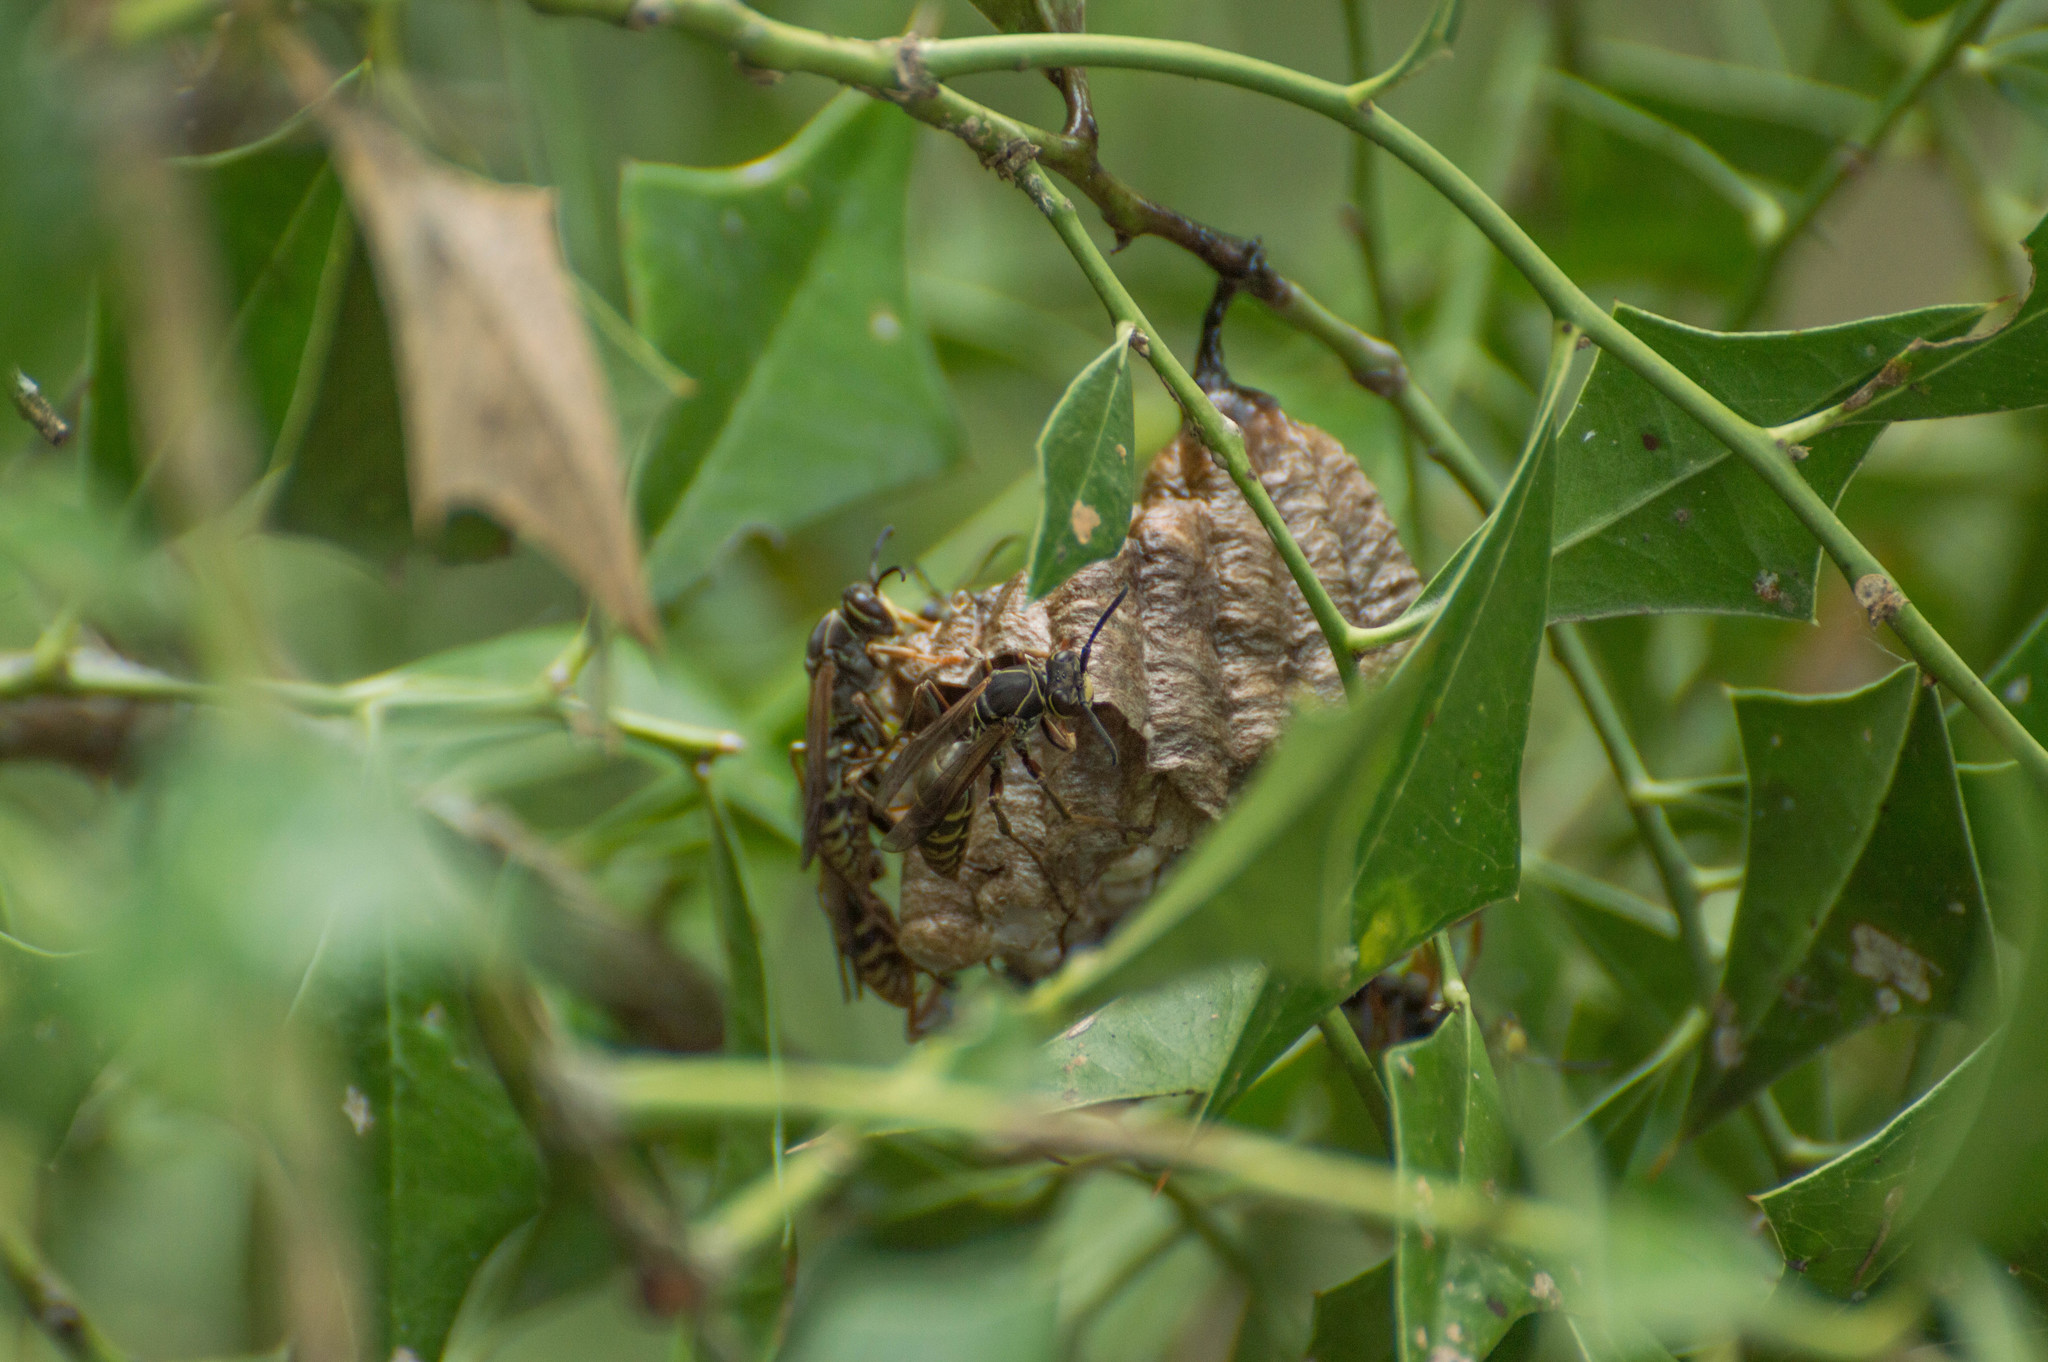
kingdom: Animalia
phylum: Arthropoda
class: Insecta
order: Hymenoptera
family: Eumenidae
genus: Polistes
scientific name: Polistes cinerascens
